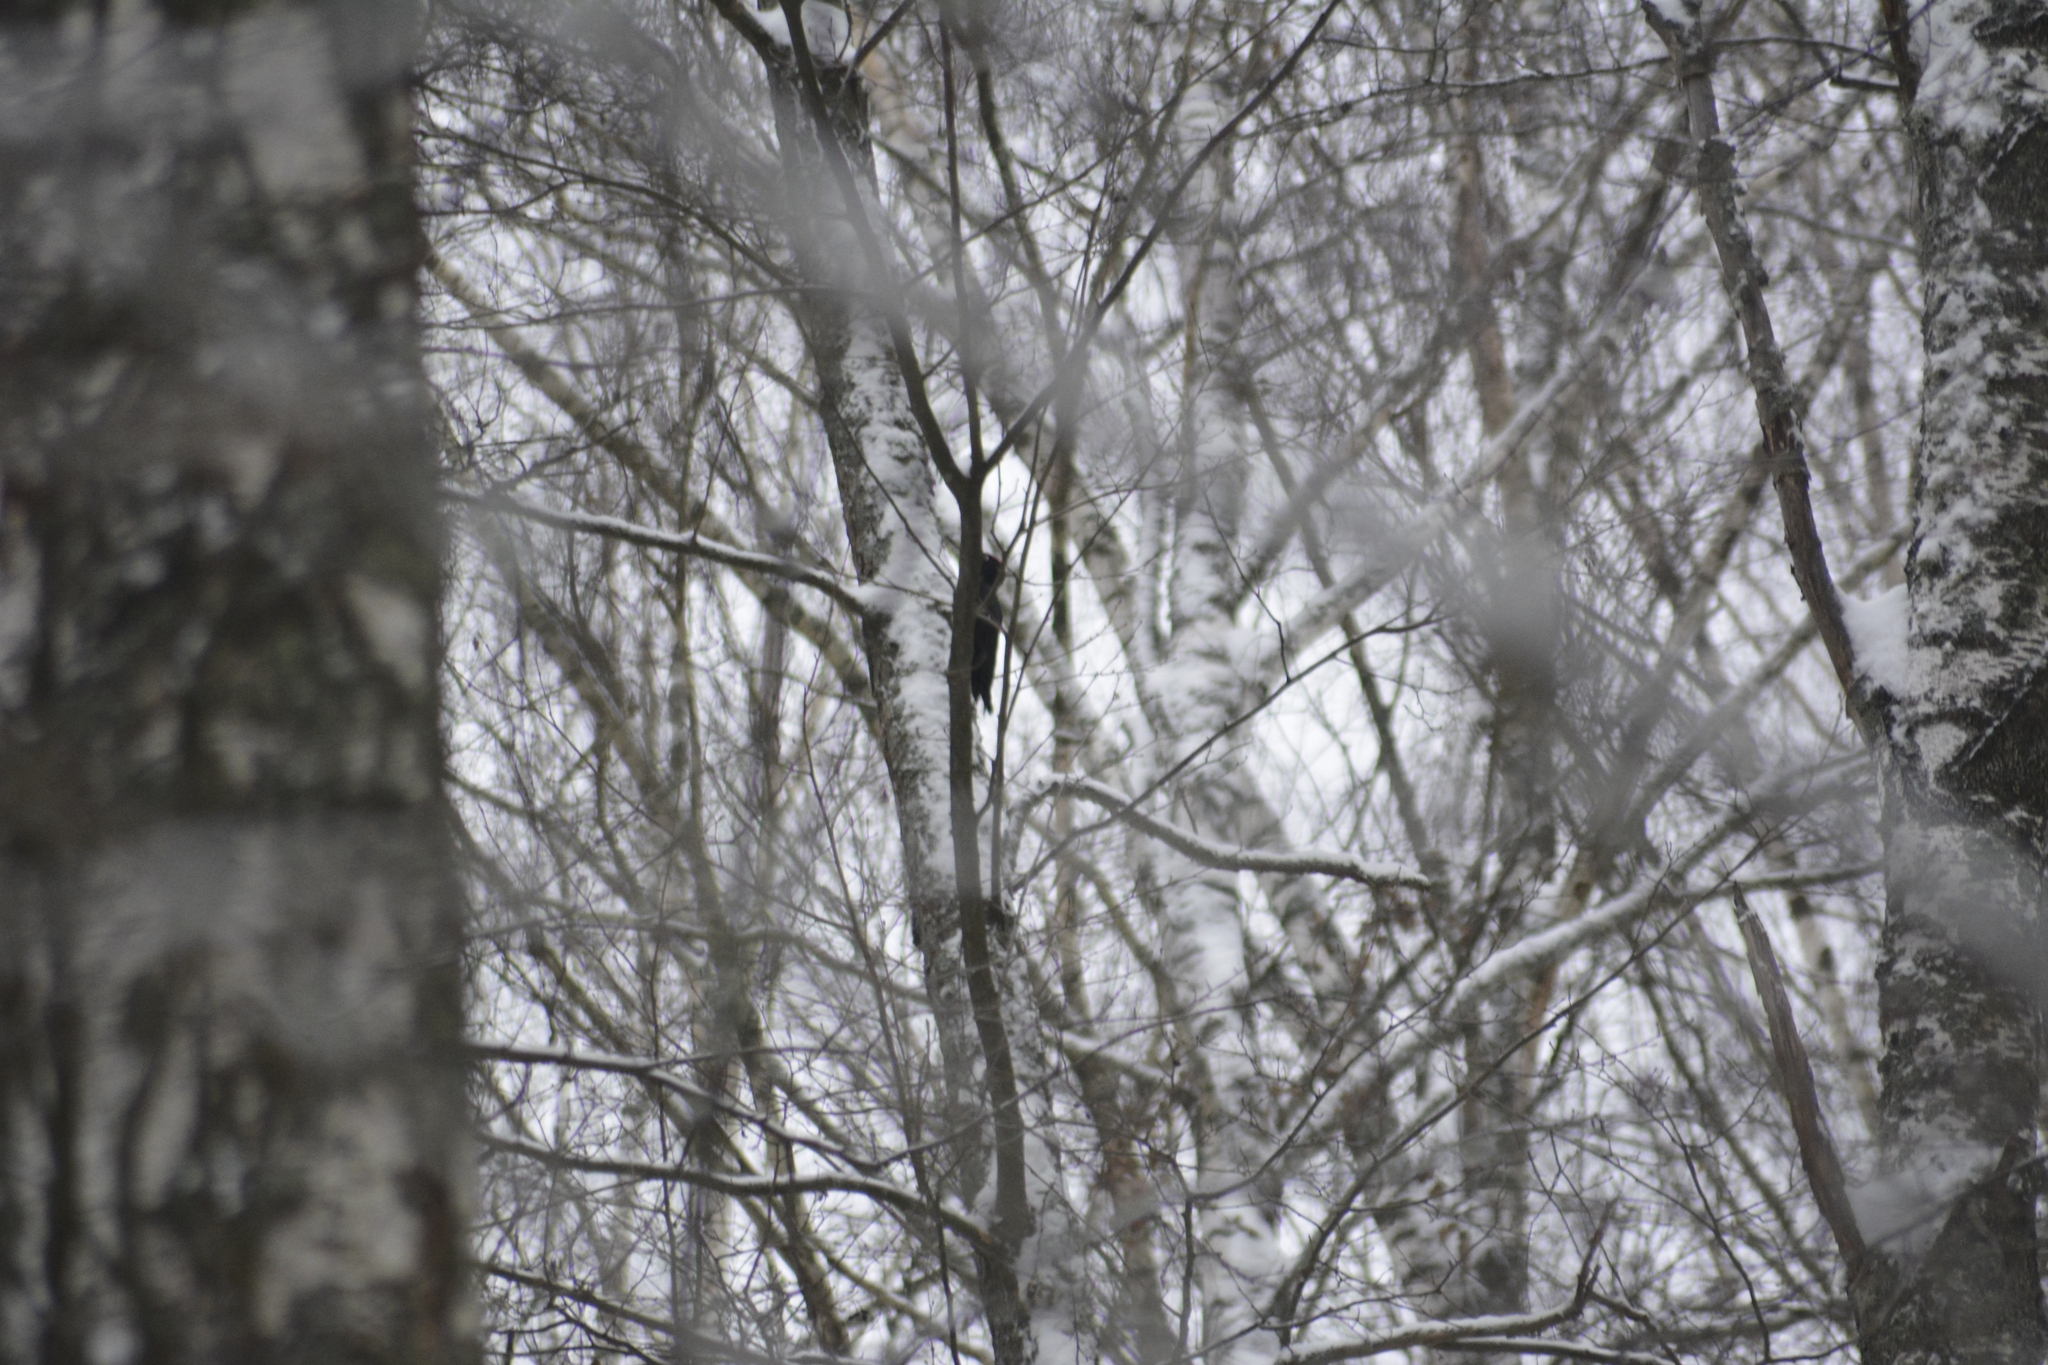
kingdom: Animalia
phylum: Chordata
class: Aves
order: Piciformes
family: Picidae
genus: Dryocopus
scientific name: Dryocopus martius
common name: Black woodpecker
